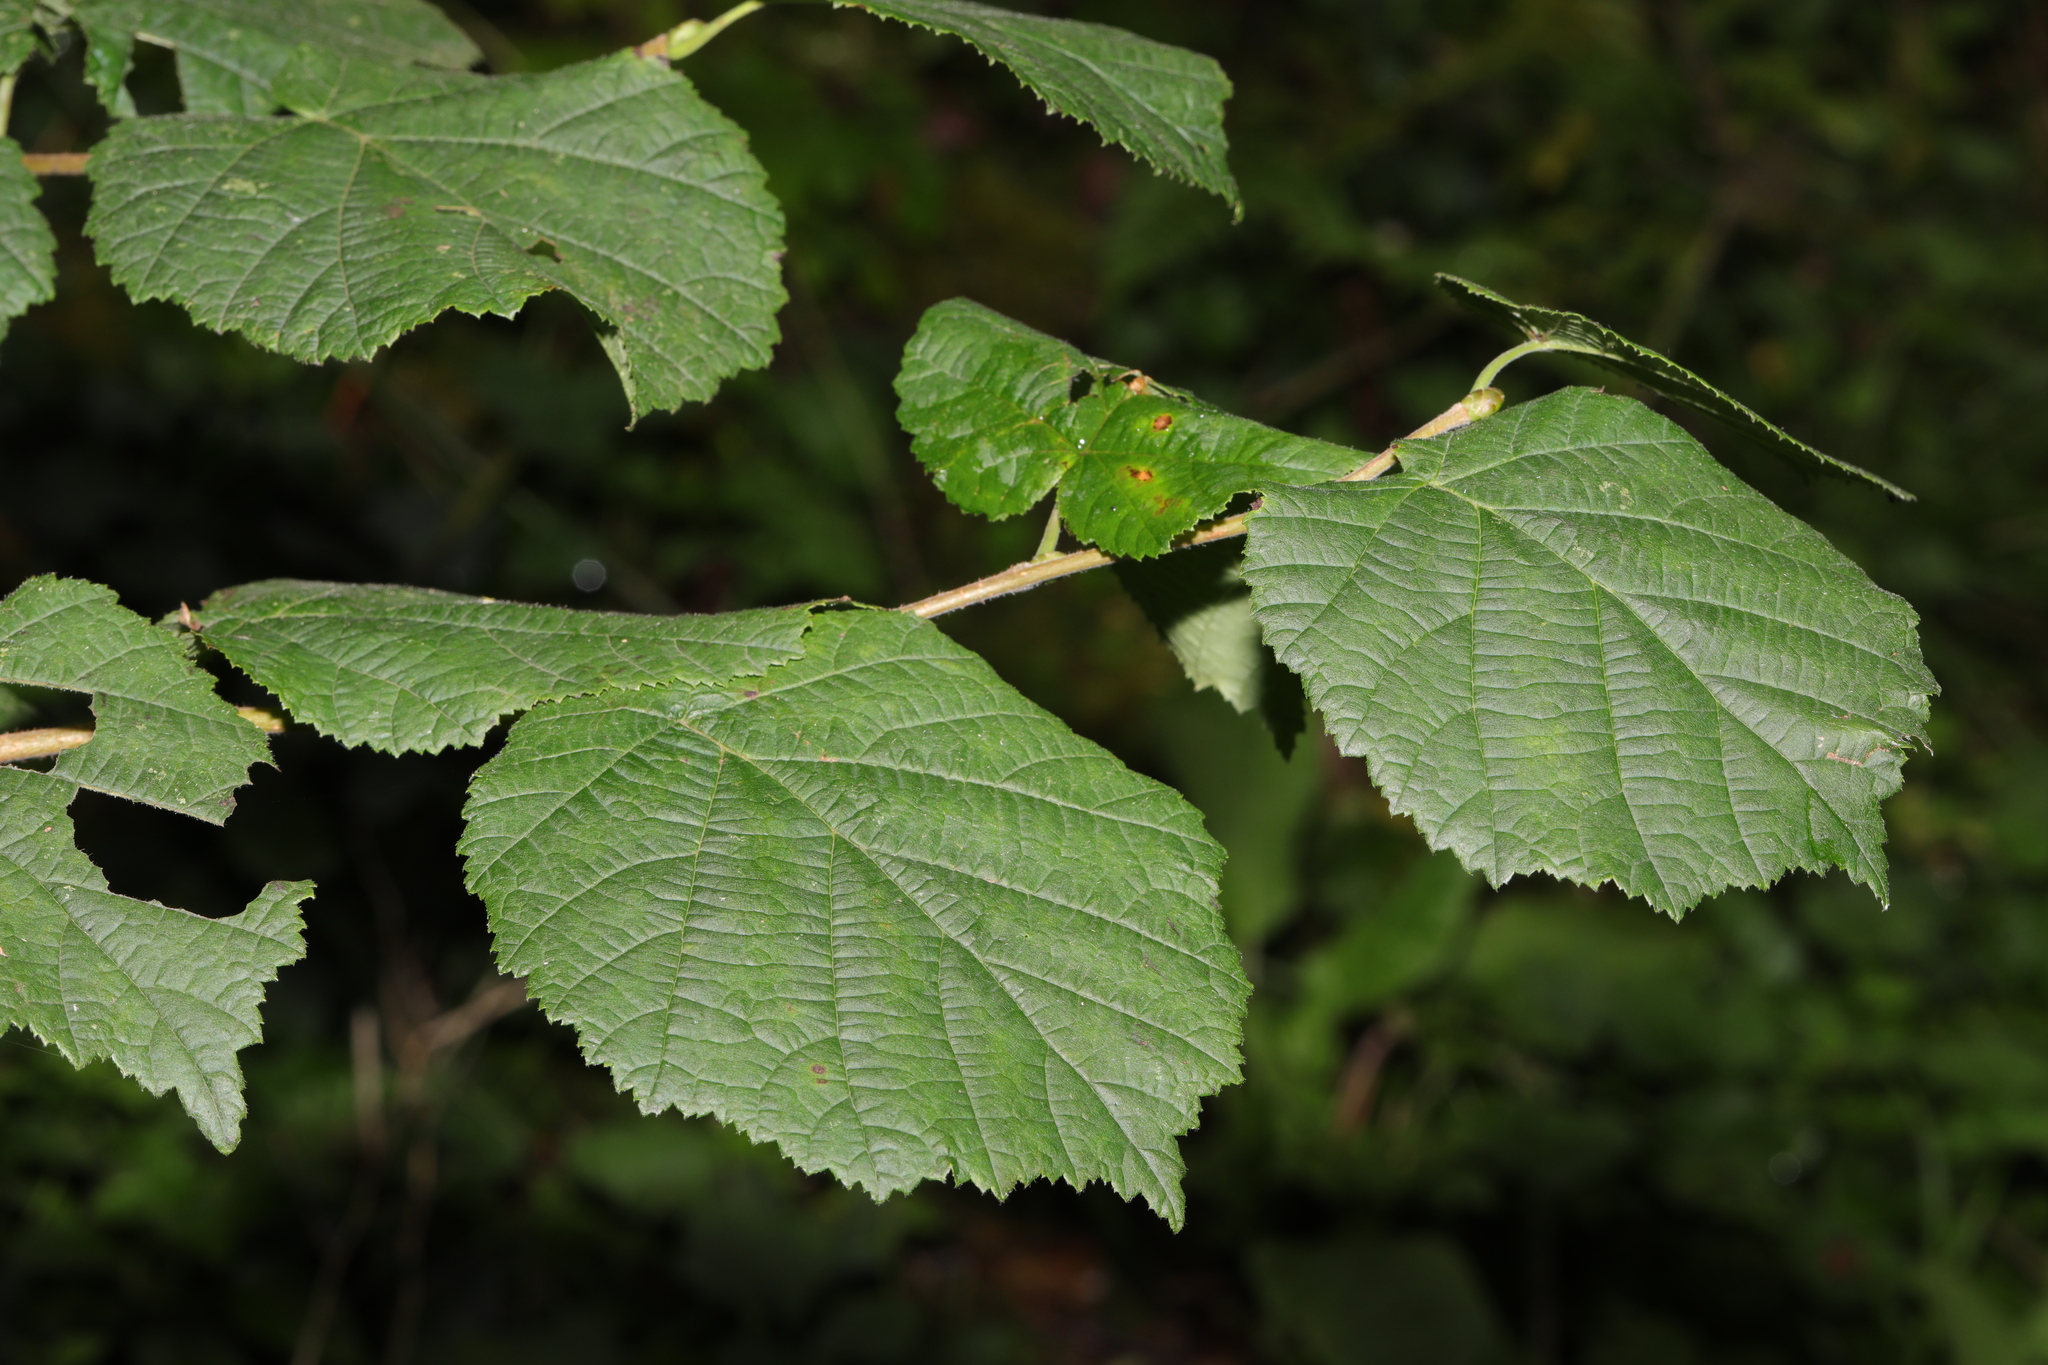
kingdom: Plantae
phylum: Tracheophyta
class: Magnoliopsida
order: Fagales
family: Betulaceae
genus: Corylus
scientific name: Corylus avellana
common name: European hazel
